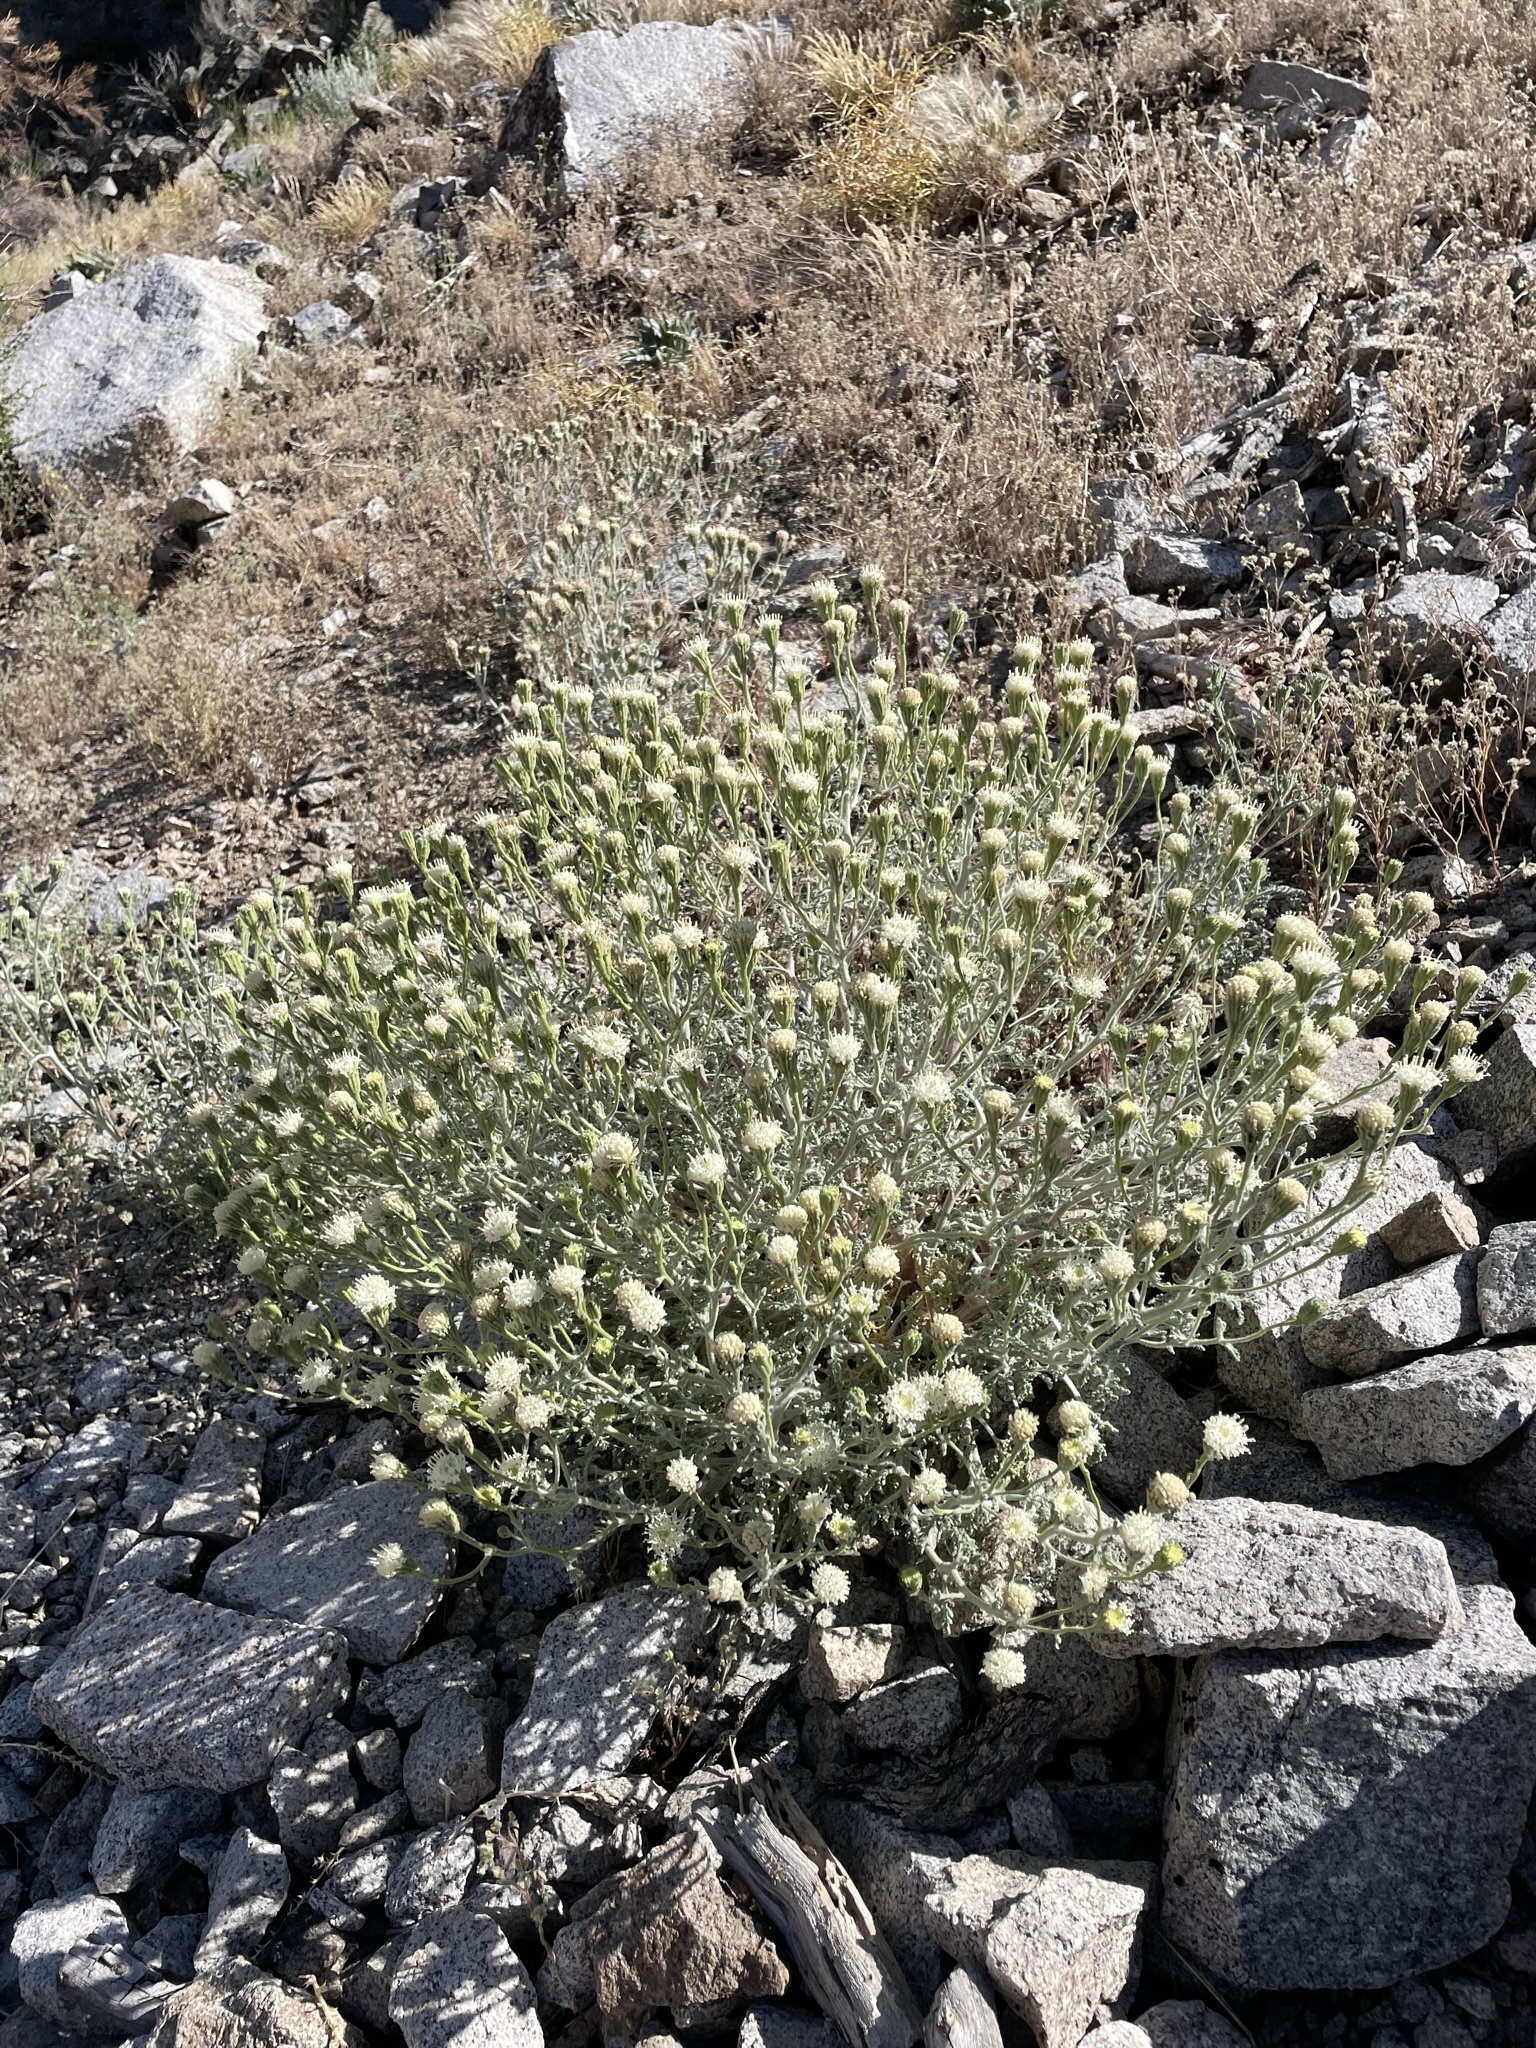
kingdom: Plantae
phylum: Tracheophyta
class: Magnoliopsida
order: Asterales
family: Asteraceae
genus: Chaenactis
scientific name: Chaenactis douglasii
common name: Hoary pincushion
